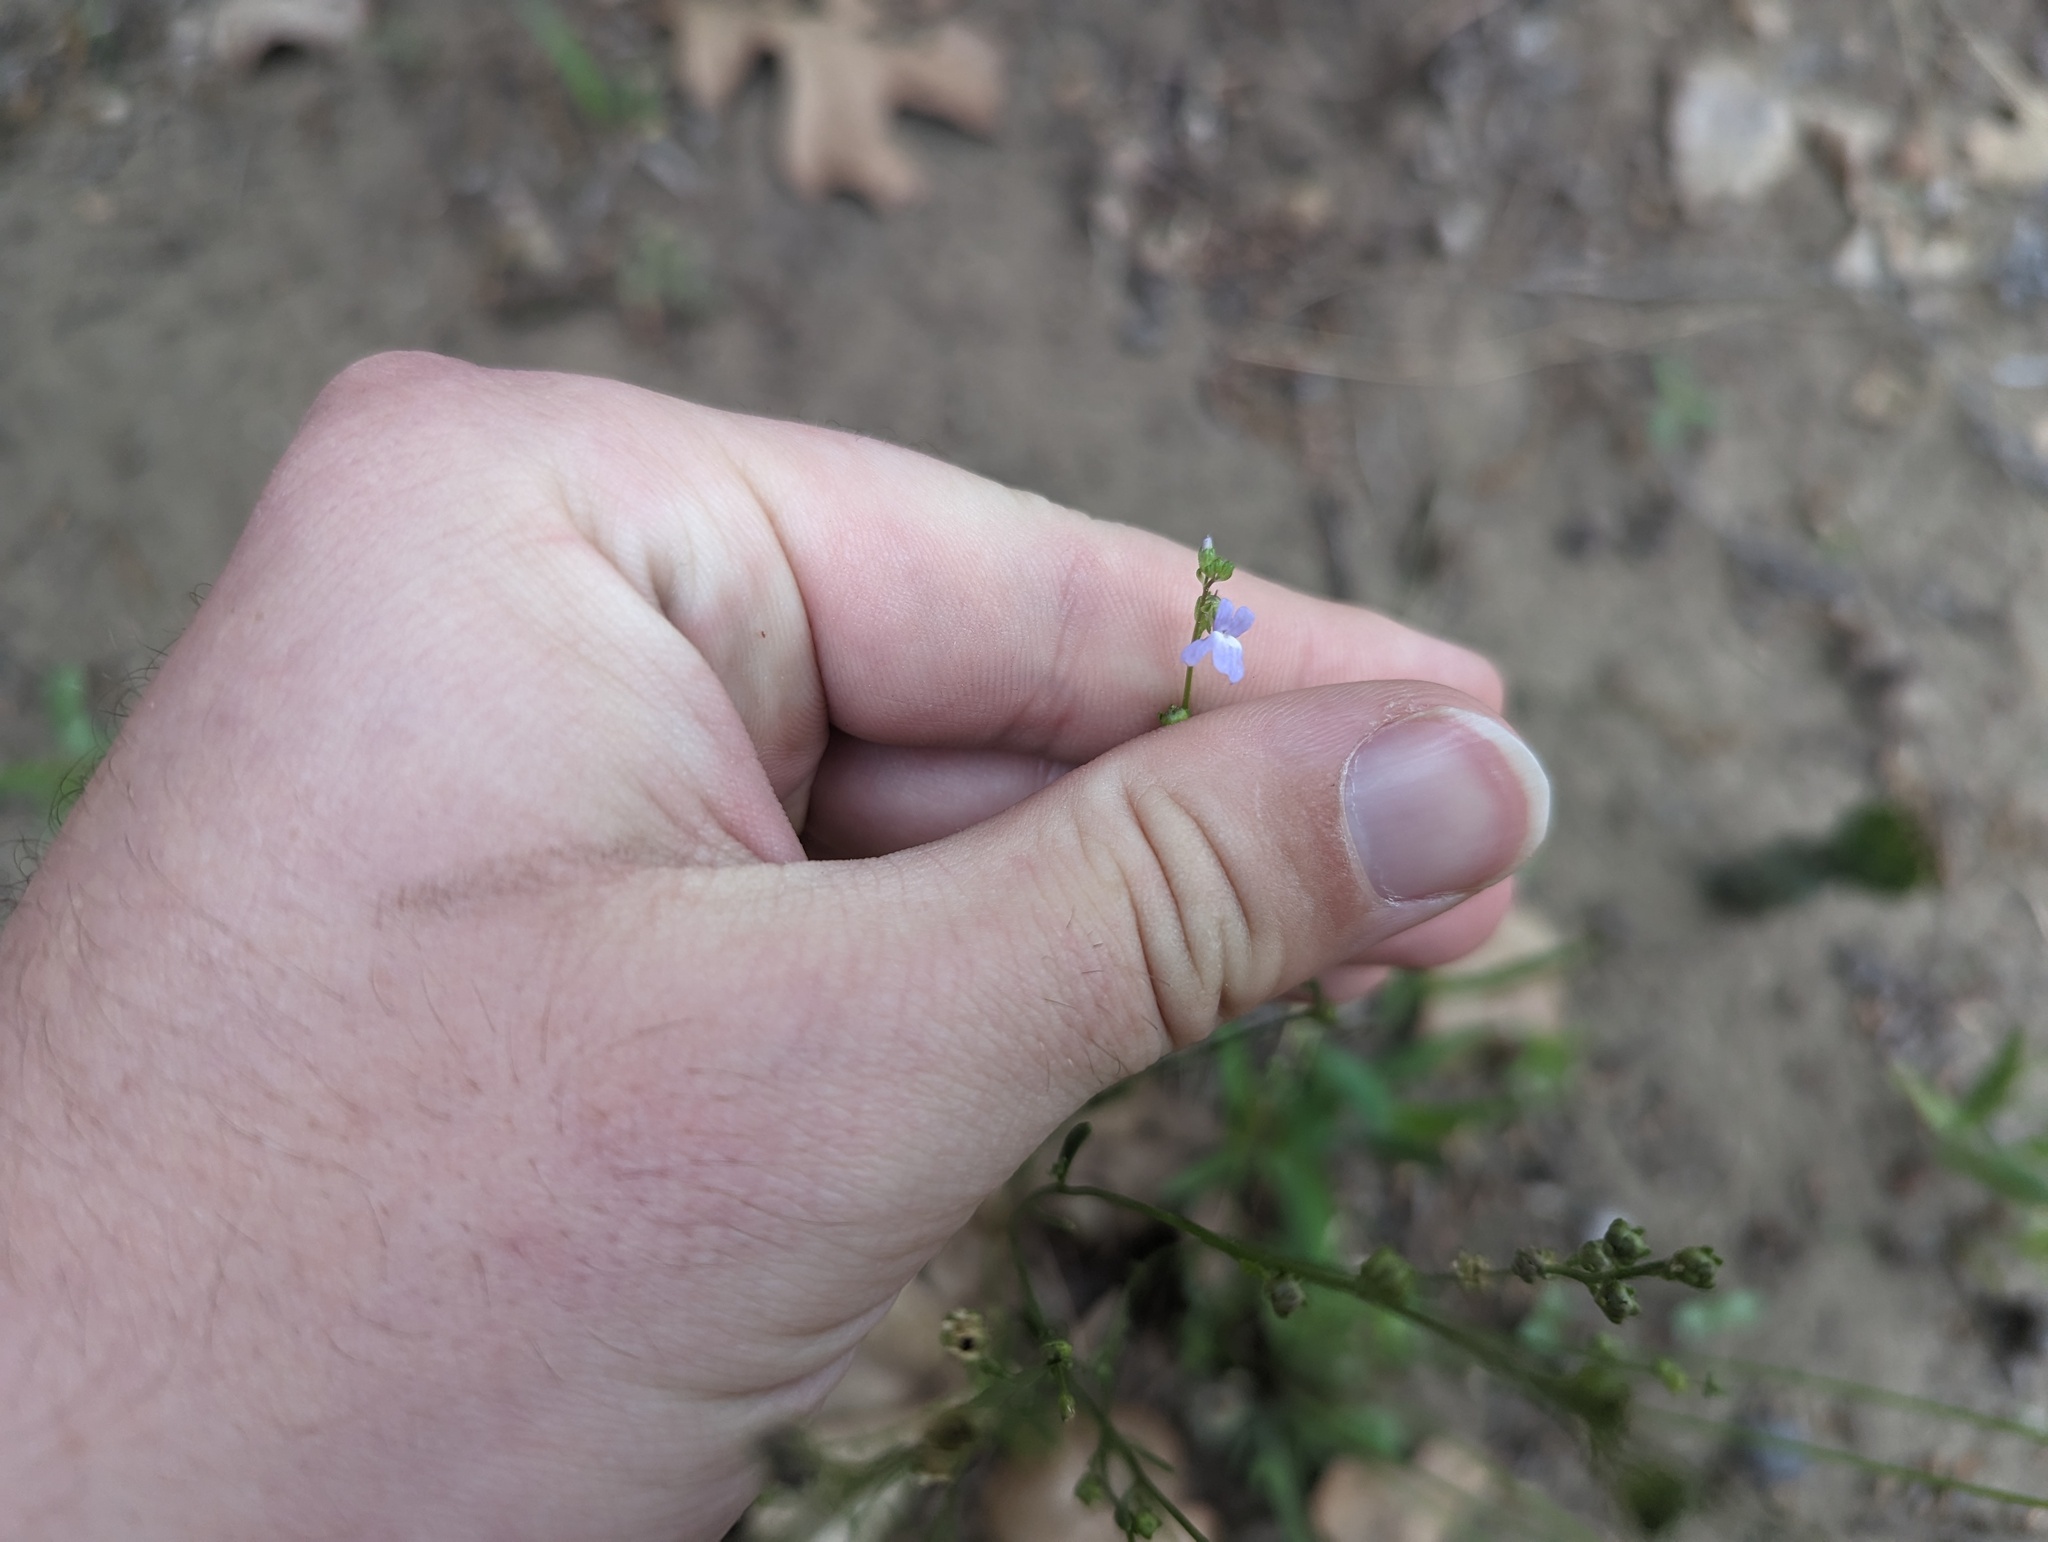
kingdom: Plantae
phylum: Tracheophyta
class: Magnoliopsida
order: Lamiales
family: Plantaginaceae
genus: Nuttallanthus
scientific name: Nuttallanthus canadensis
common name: Blue toadflax
